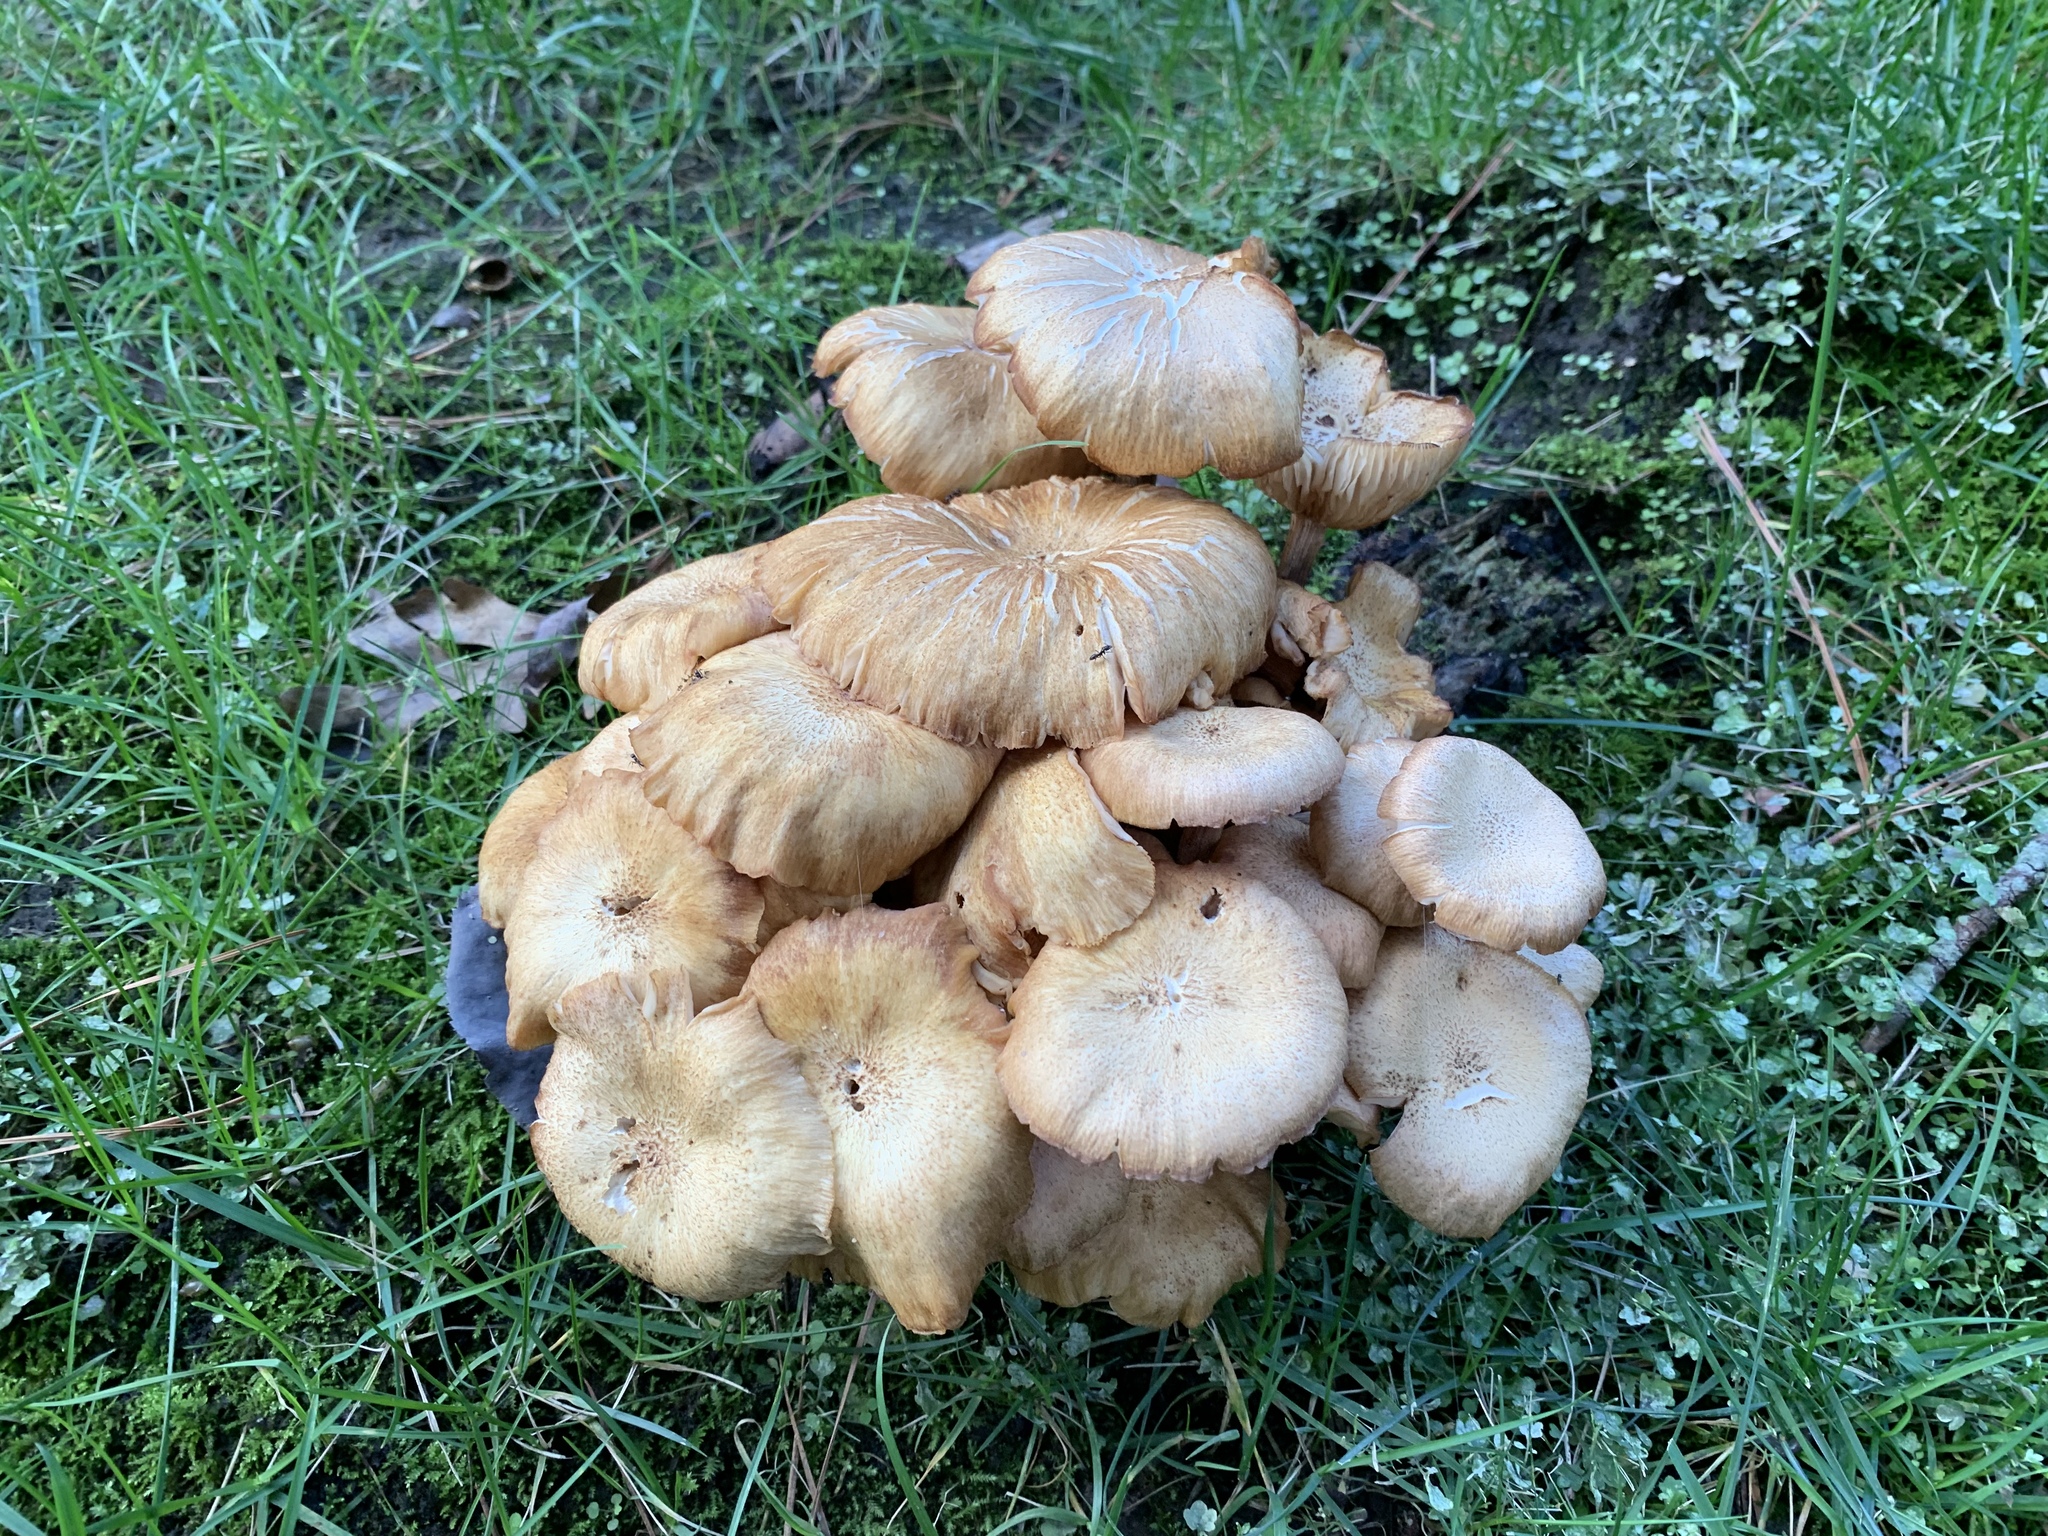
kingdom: Fungi
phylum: Basidiomycota
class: Agaricomycetes
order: Agaricales
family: Physalacriaceae
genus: Desarmillaria
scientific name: Desarmillaria caespitosa
